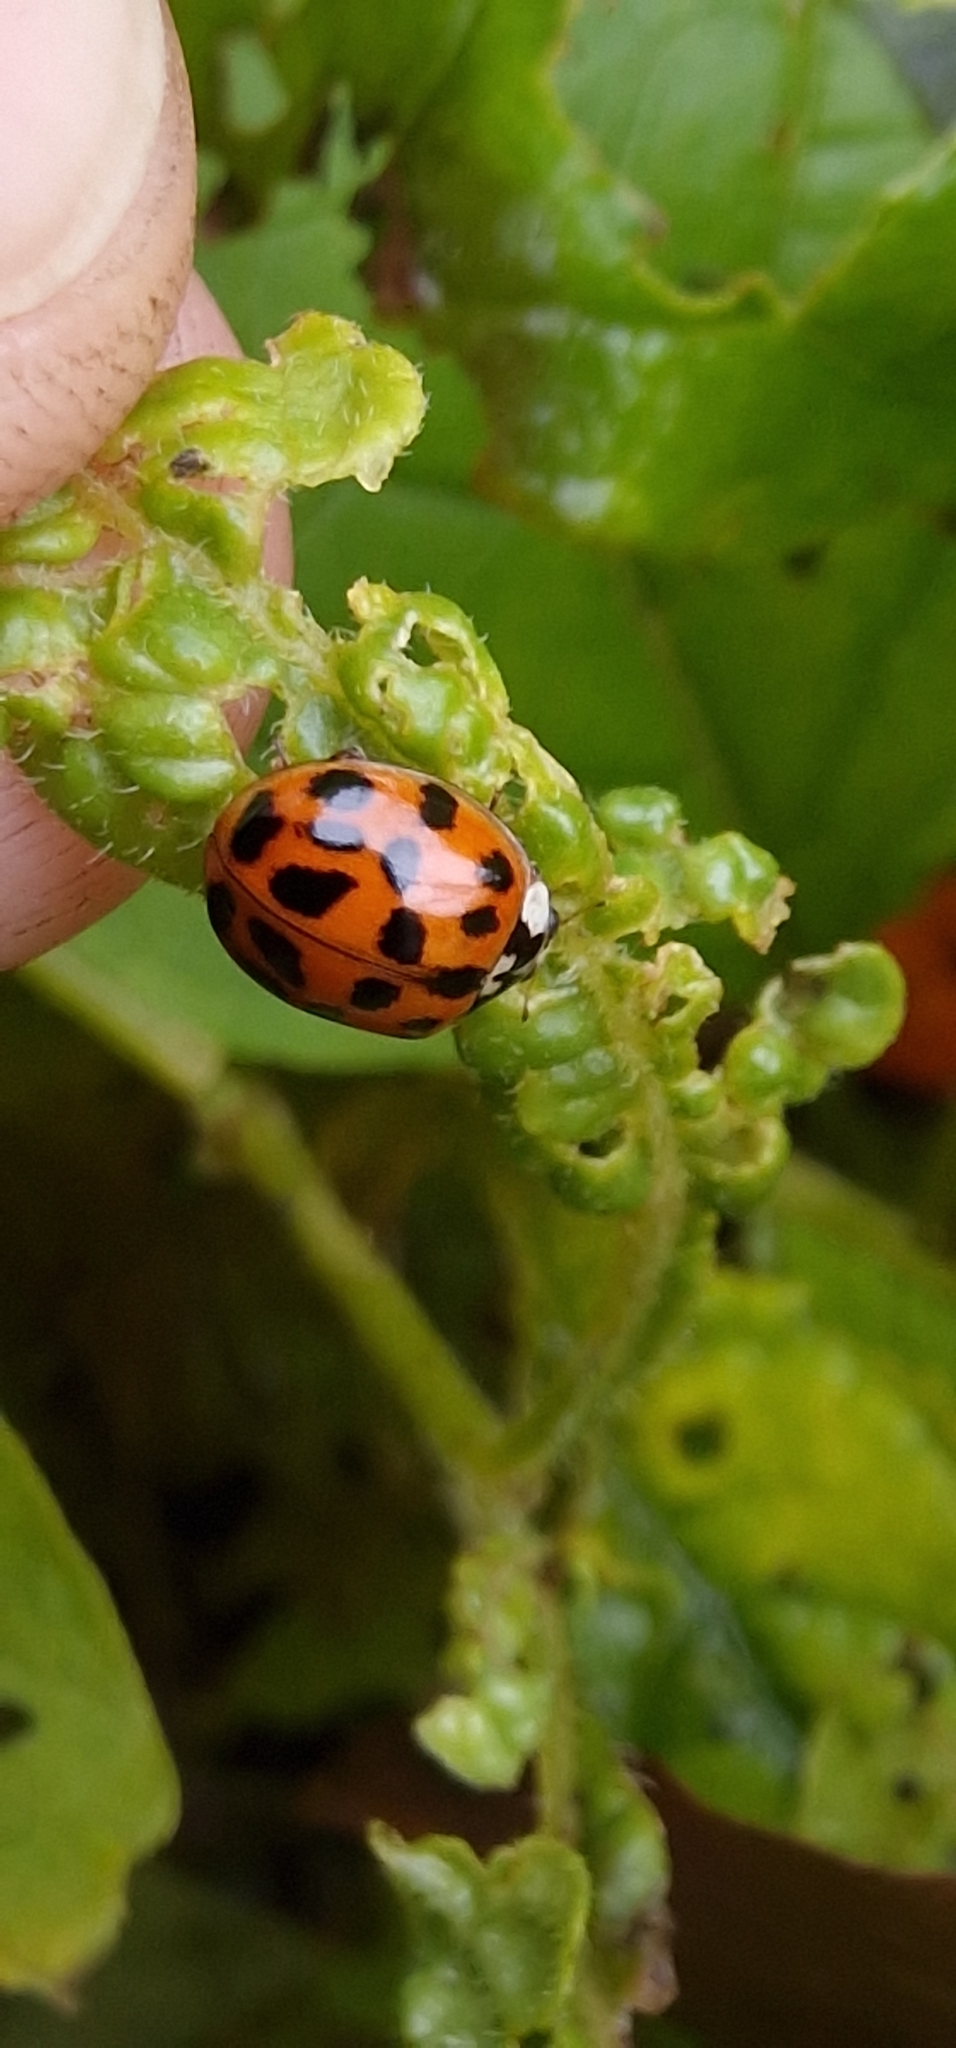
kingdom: Animalia
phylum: Arthropoda
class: Insecta
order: Coleoptera
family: Coccinellidae
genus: Harmonia
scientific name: Harmonia axyridis
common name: Harlequin ladybird
